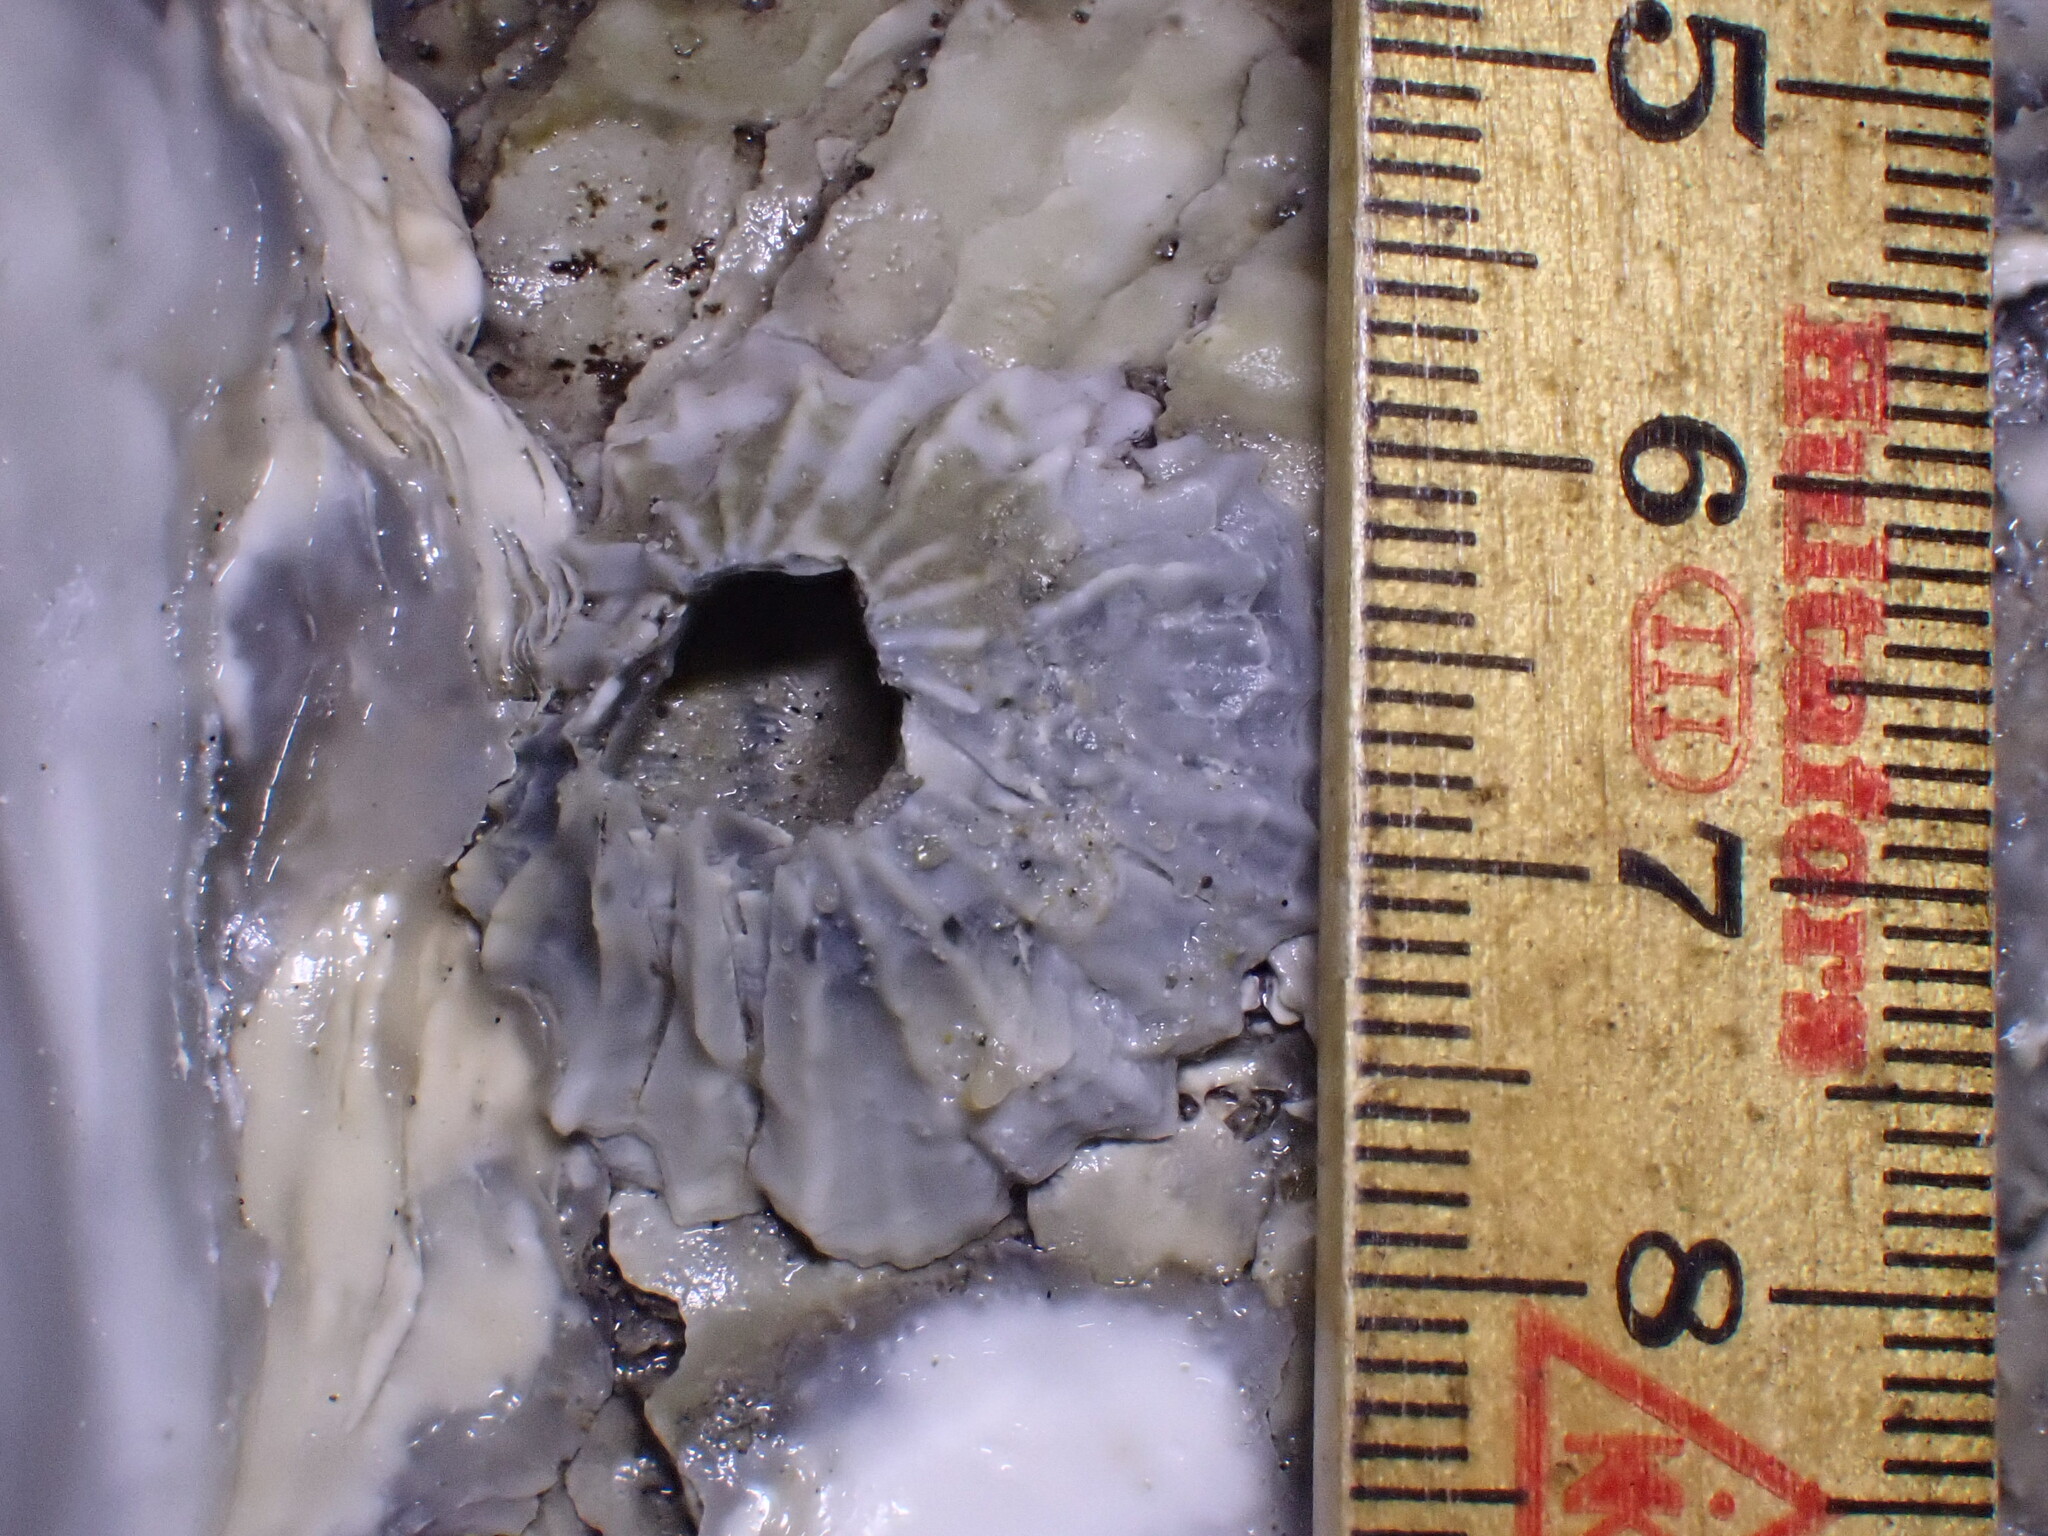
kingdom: Animalia
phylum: Arthropoda
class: Maxillopoda
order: Sessilia
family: Balanidae
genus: Balanus
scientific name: Balanus balanus
